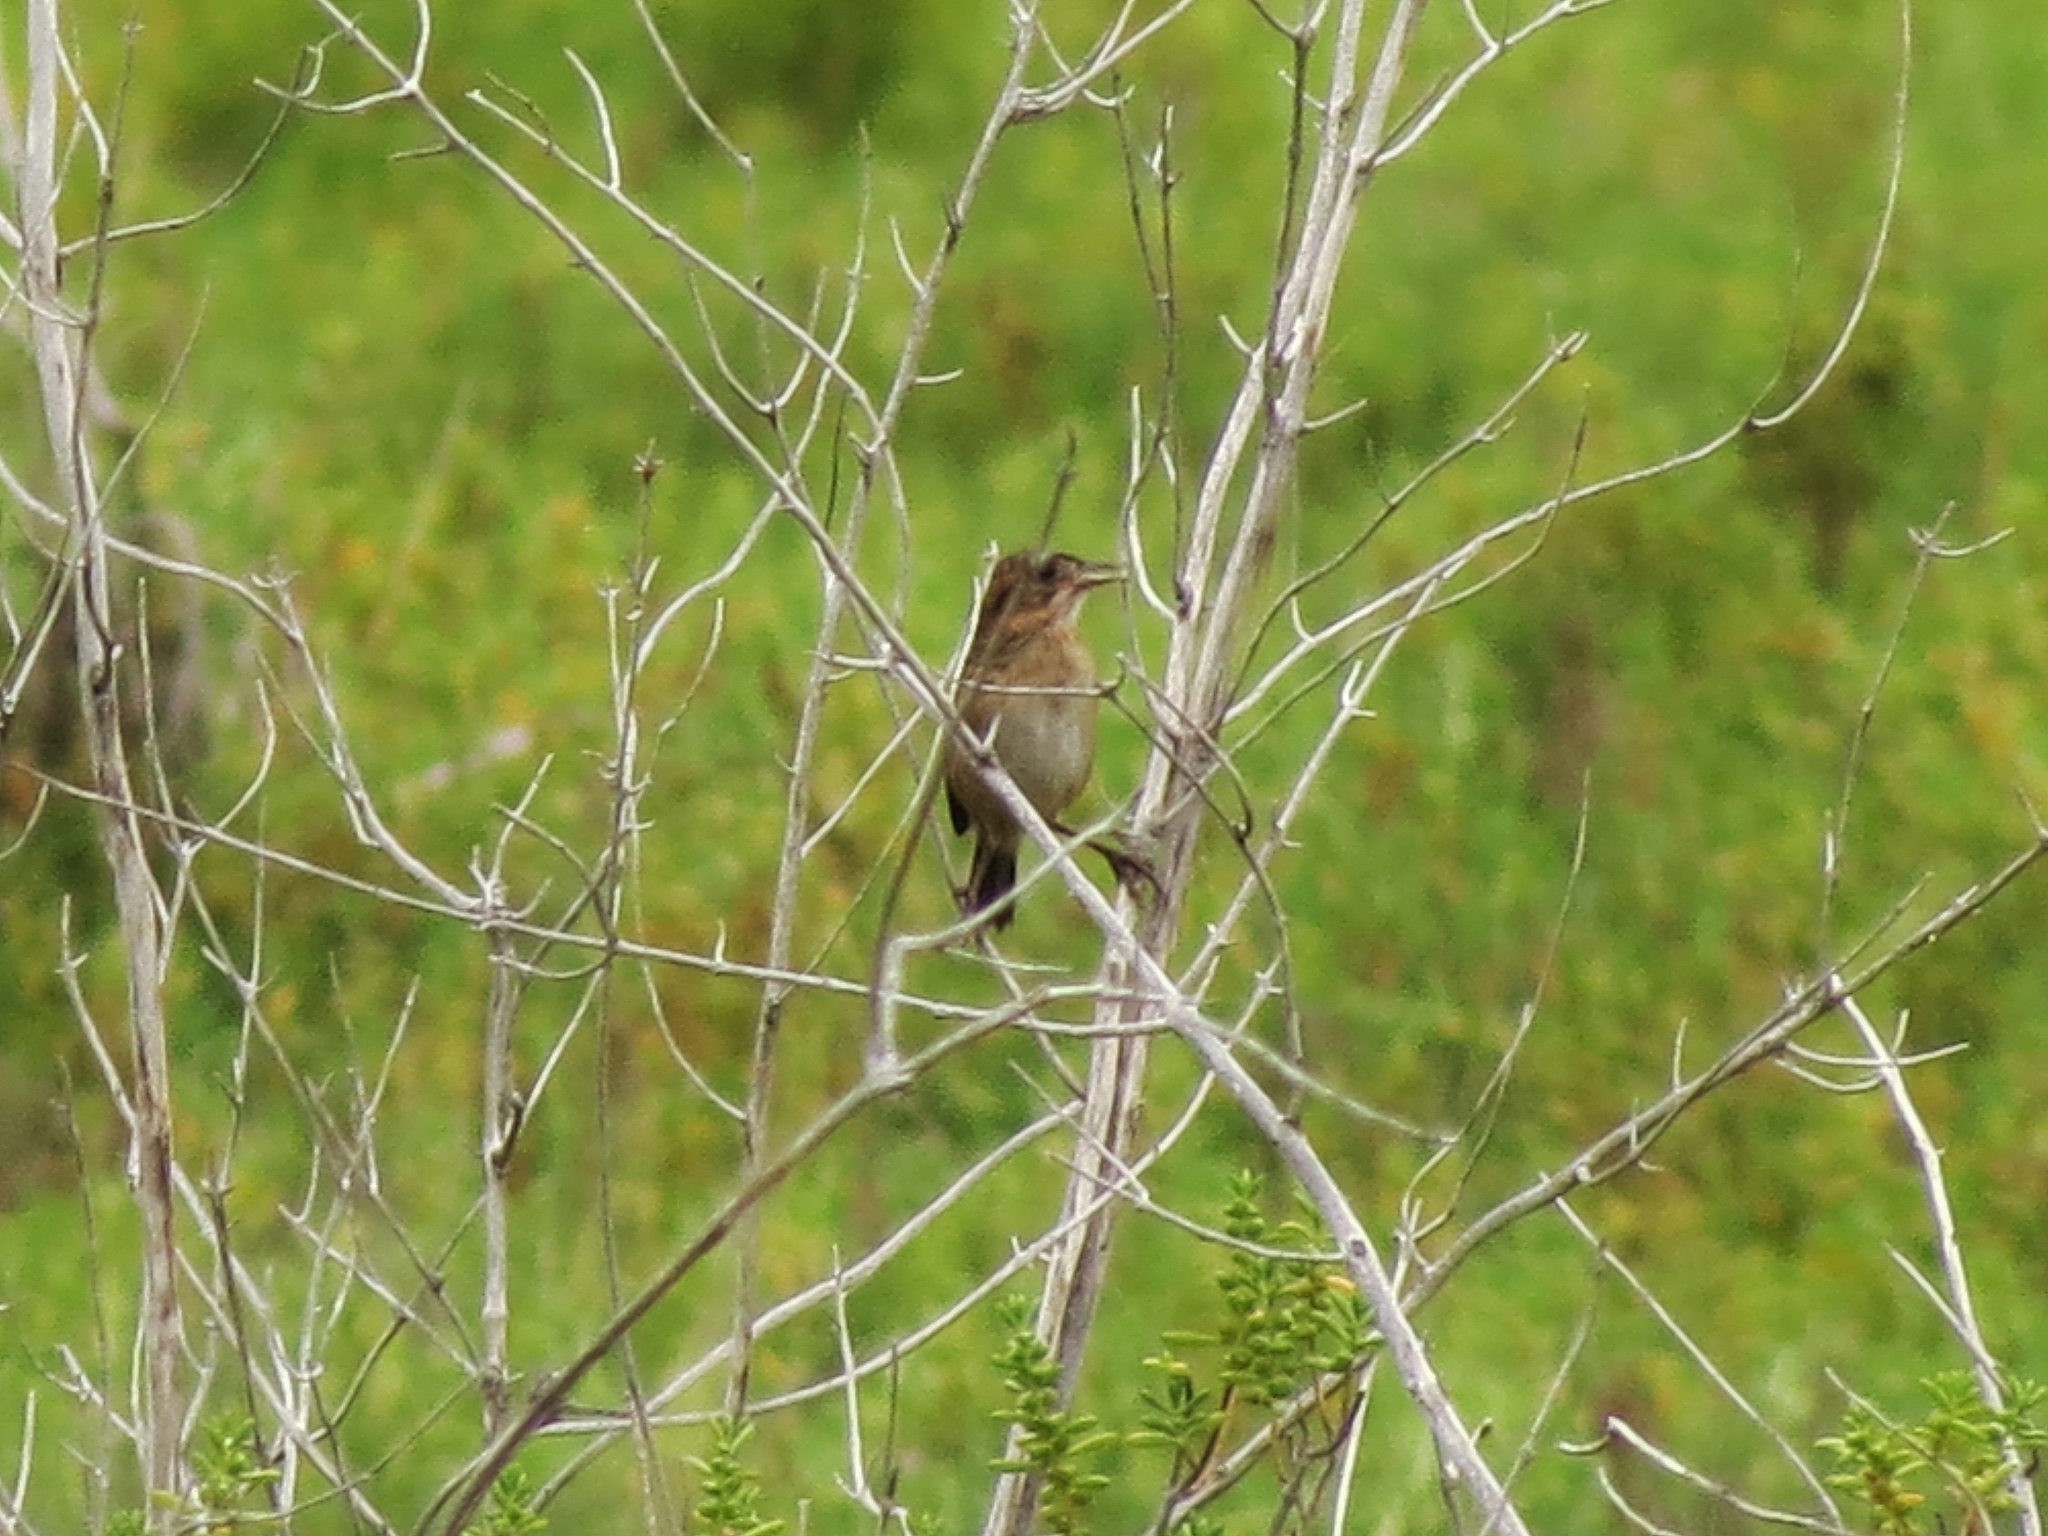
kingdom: Animalia
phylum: Chordata
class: Aves
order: Passeriformes
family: Passerellidae
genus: Ammospiza
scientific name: Ammospiza maritima
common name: Seaside sparrow
